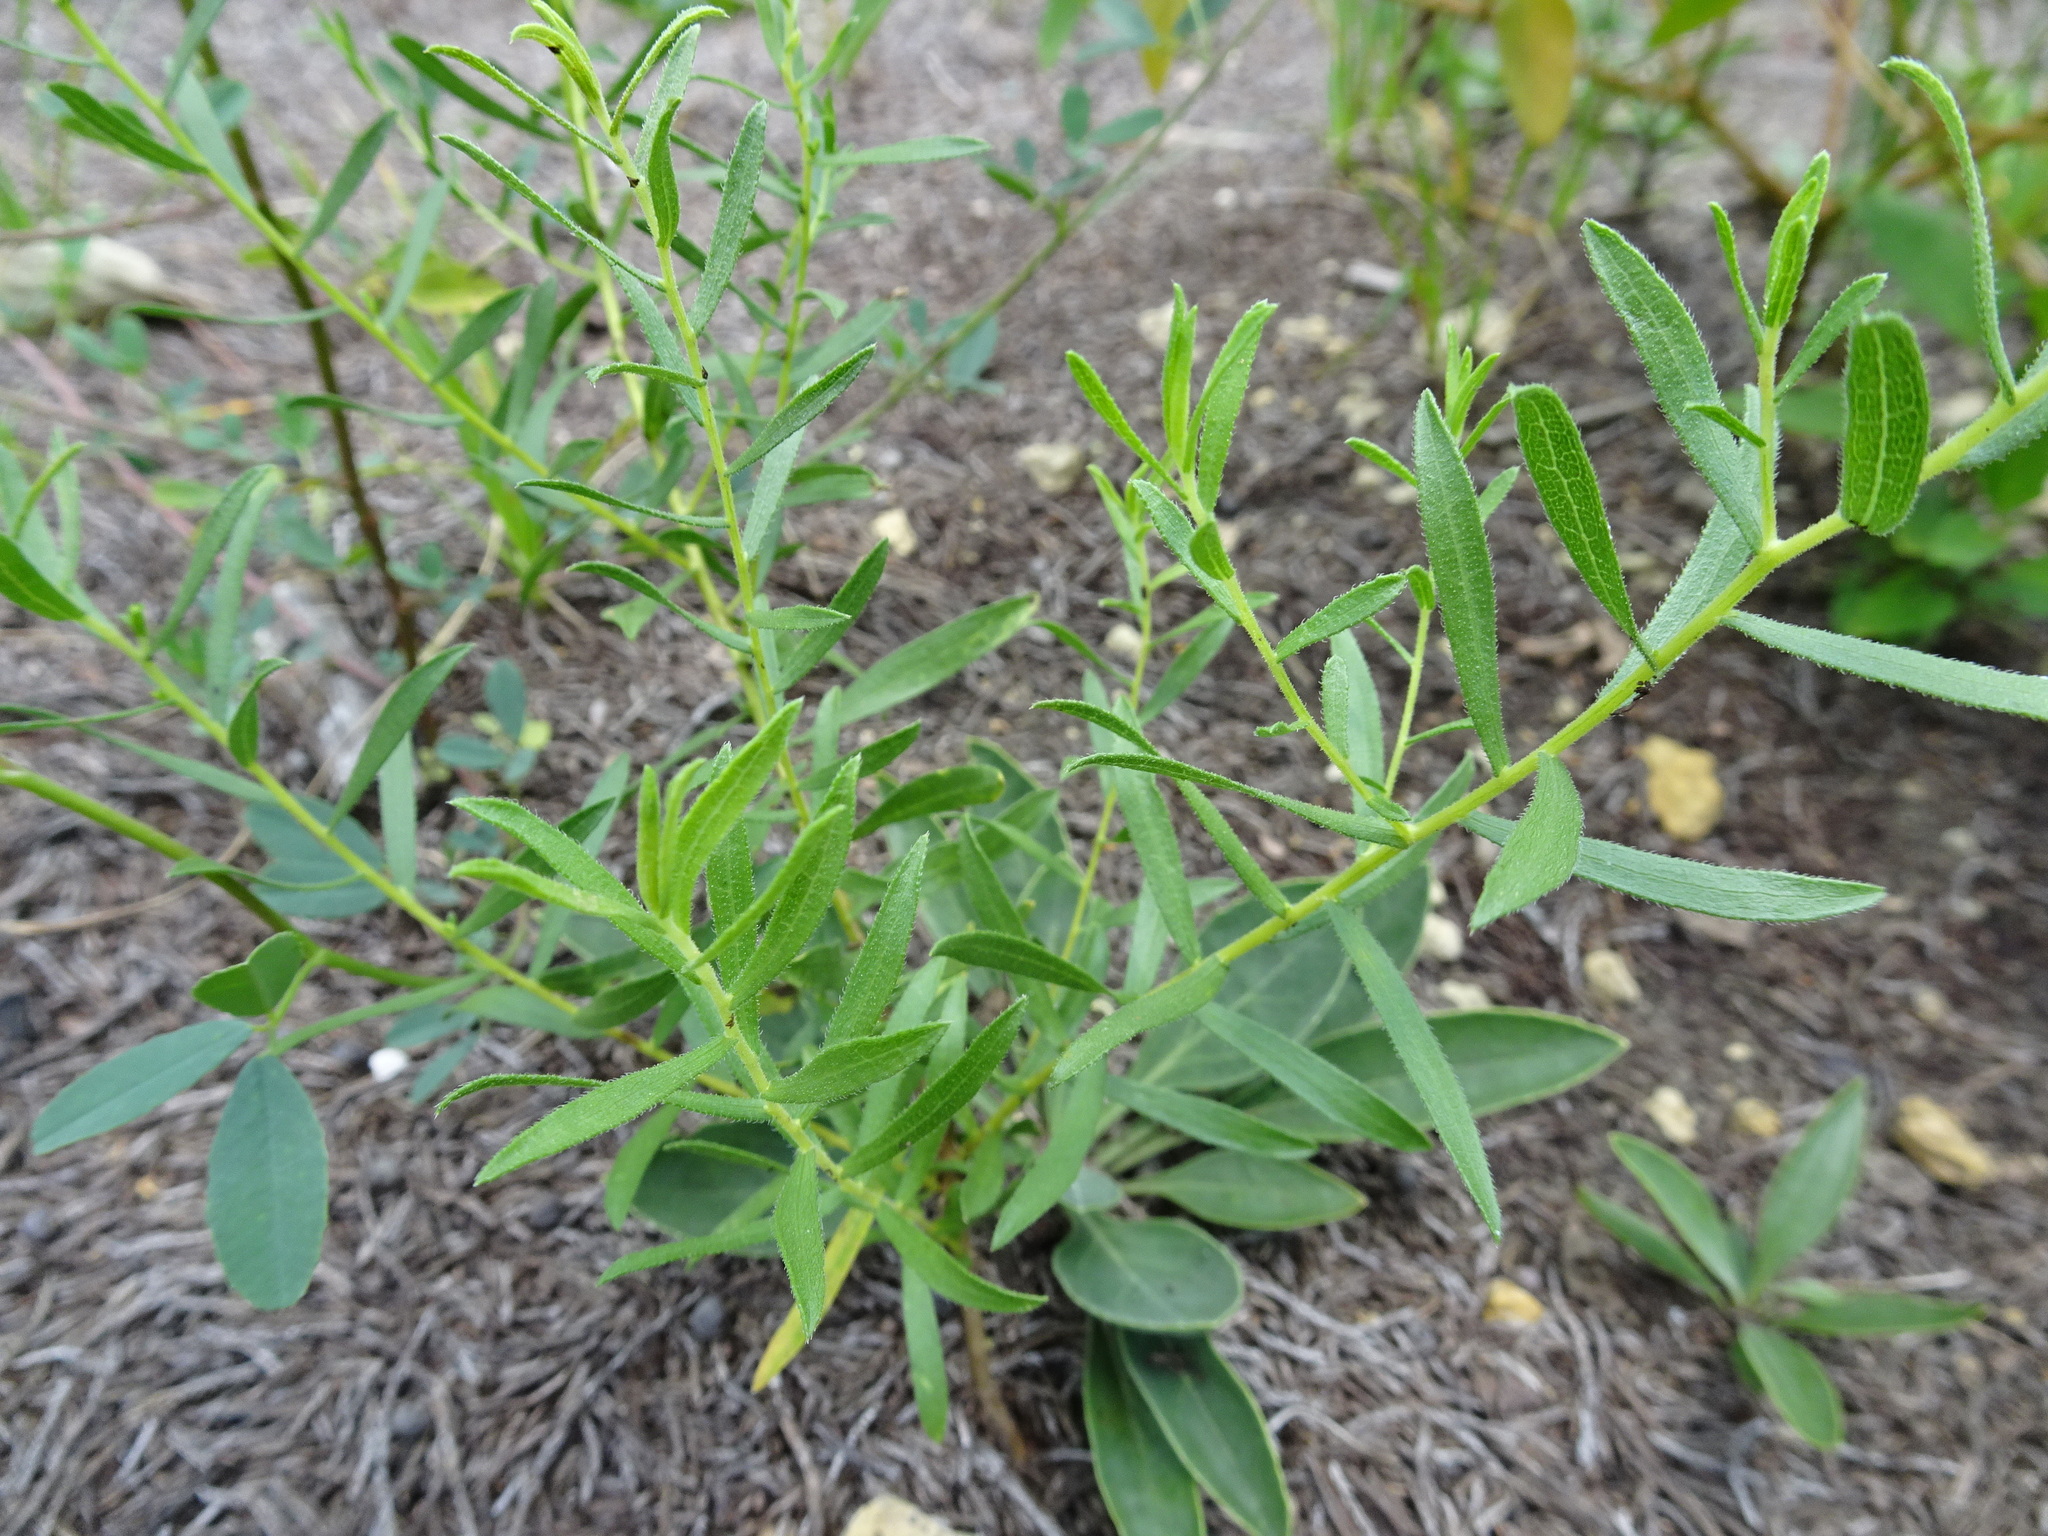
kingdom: Plantae
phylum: Tracheophyta
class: Magnoliopsida
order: Asterales
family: Asteraceae
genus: Liatris
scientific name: Liatris aspera
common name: Lacerate blazing-star
